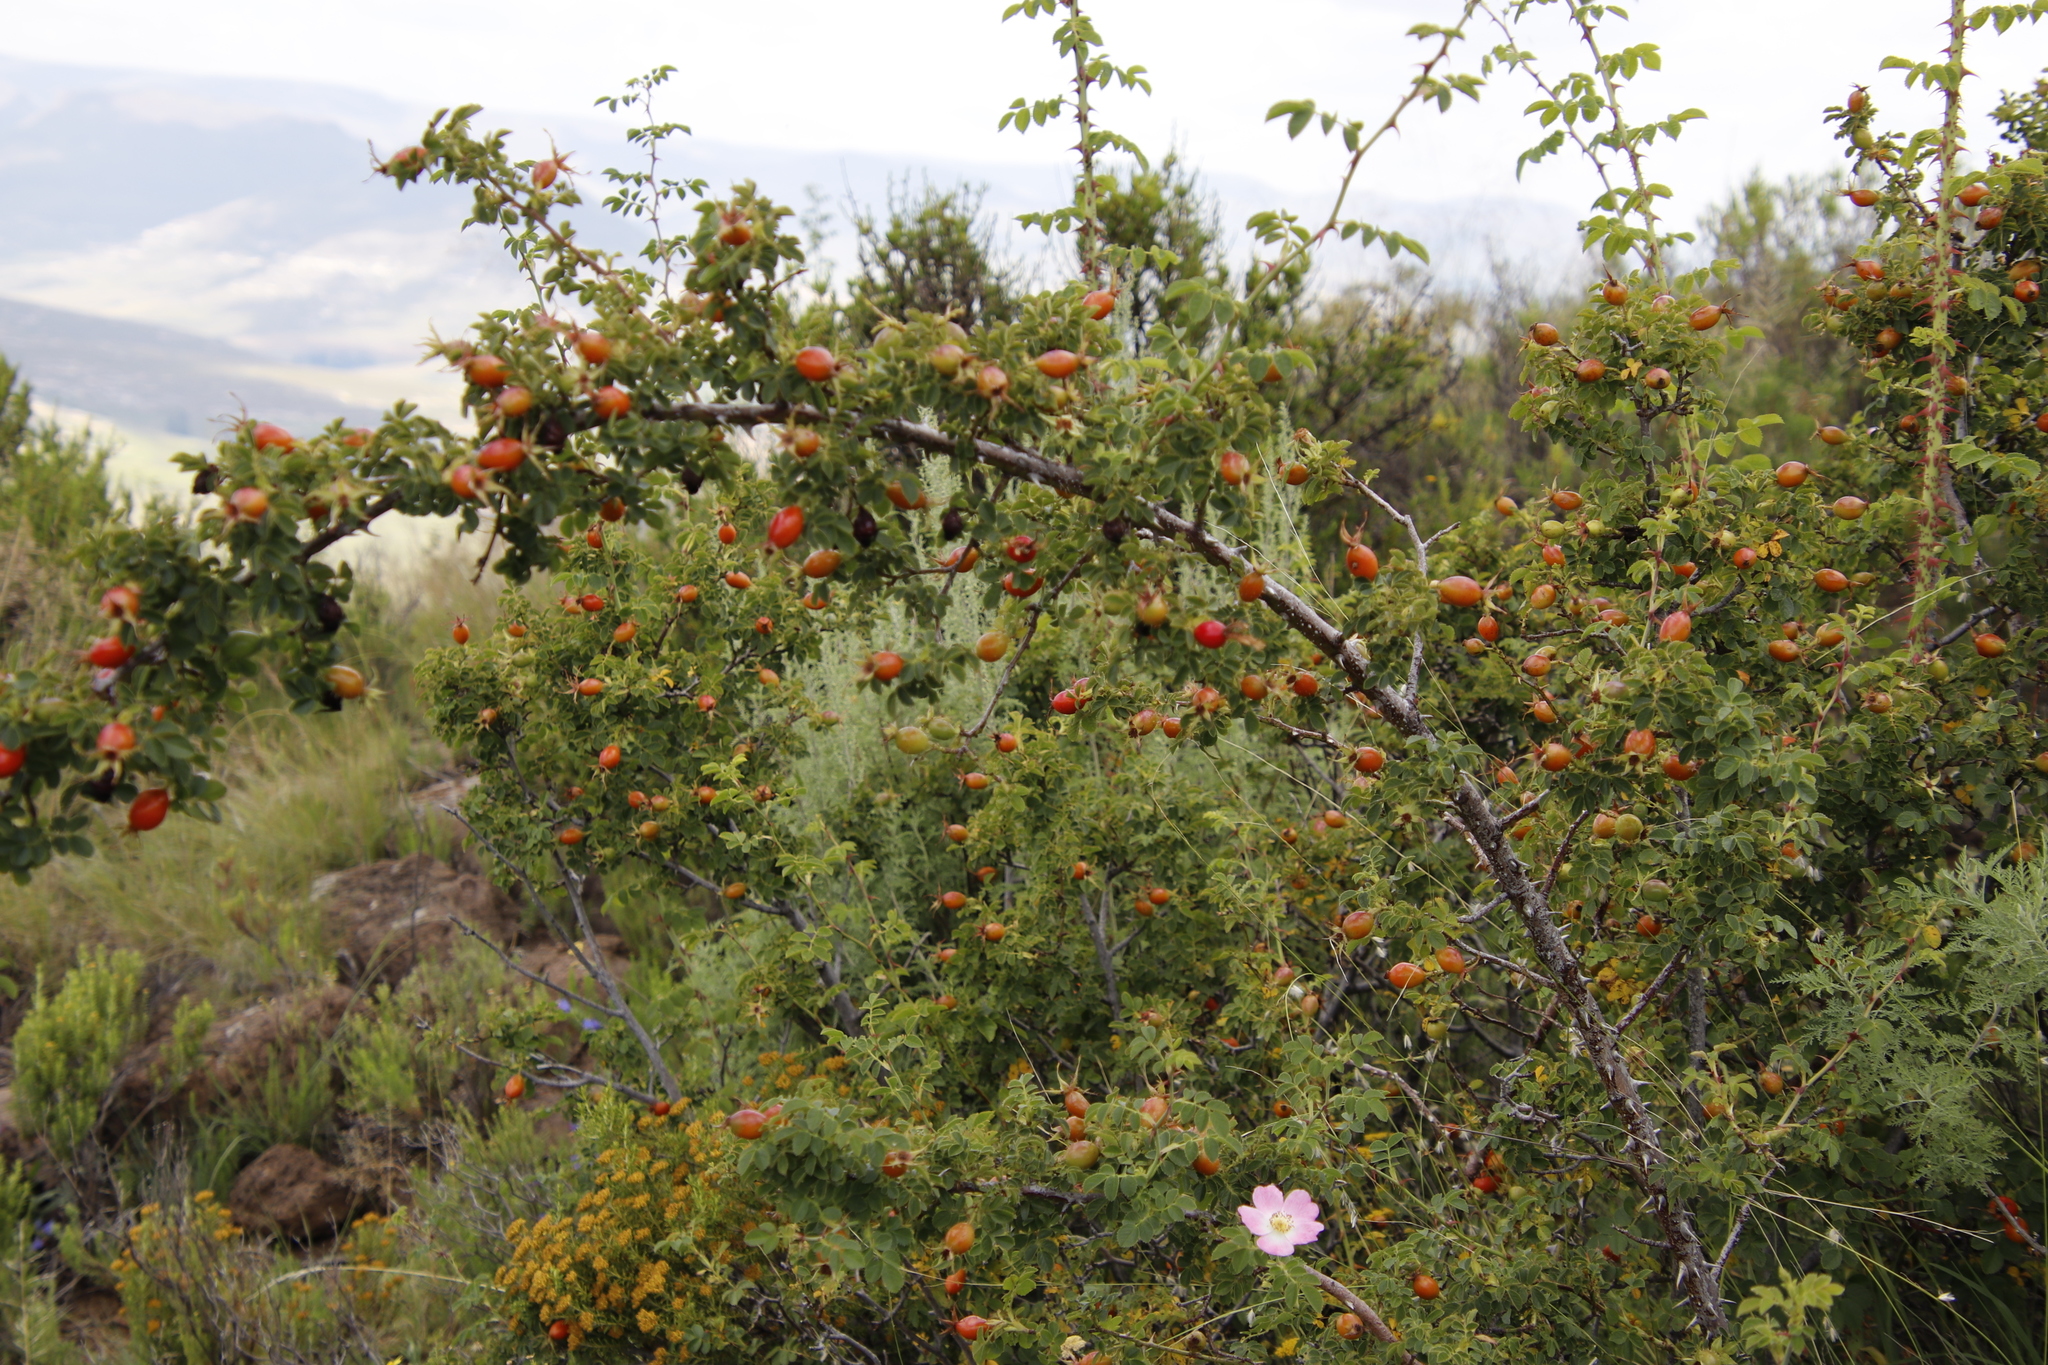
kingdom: Plantae
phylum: Tracheophyta
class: Magnoliopsida
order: Rosales
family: Rosaceae
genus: Rosa
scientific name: Rosa rubiginosa
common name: Sweet-briar
